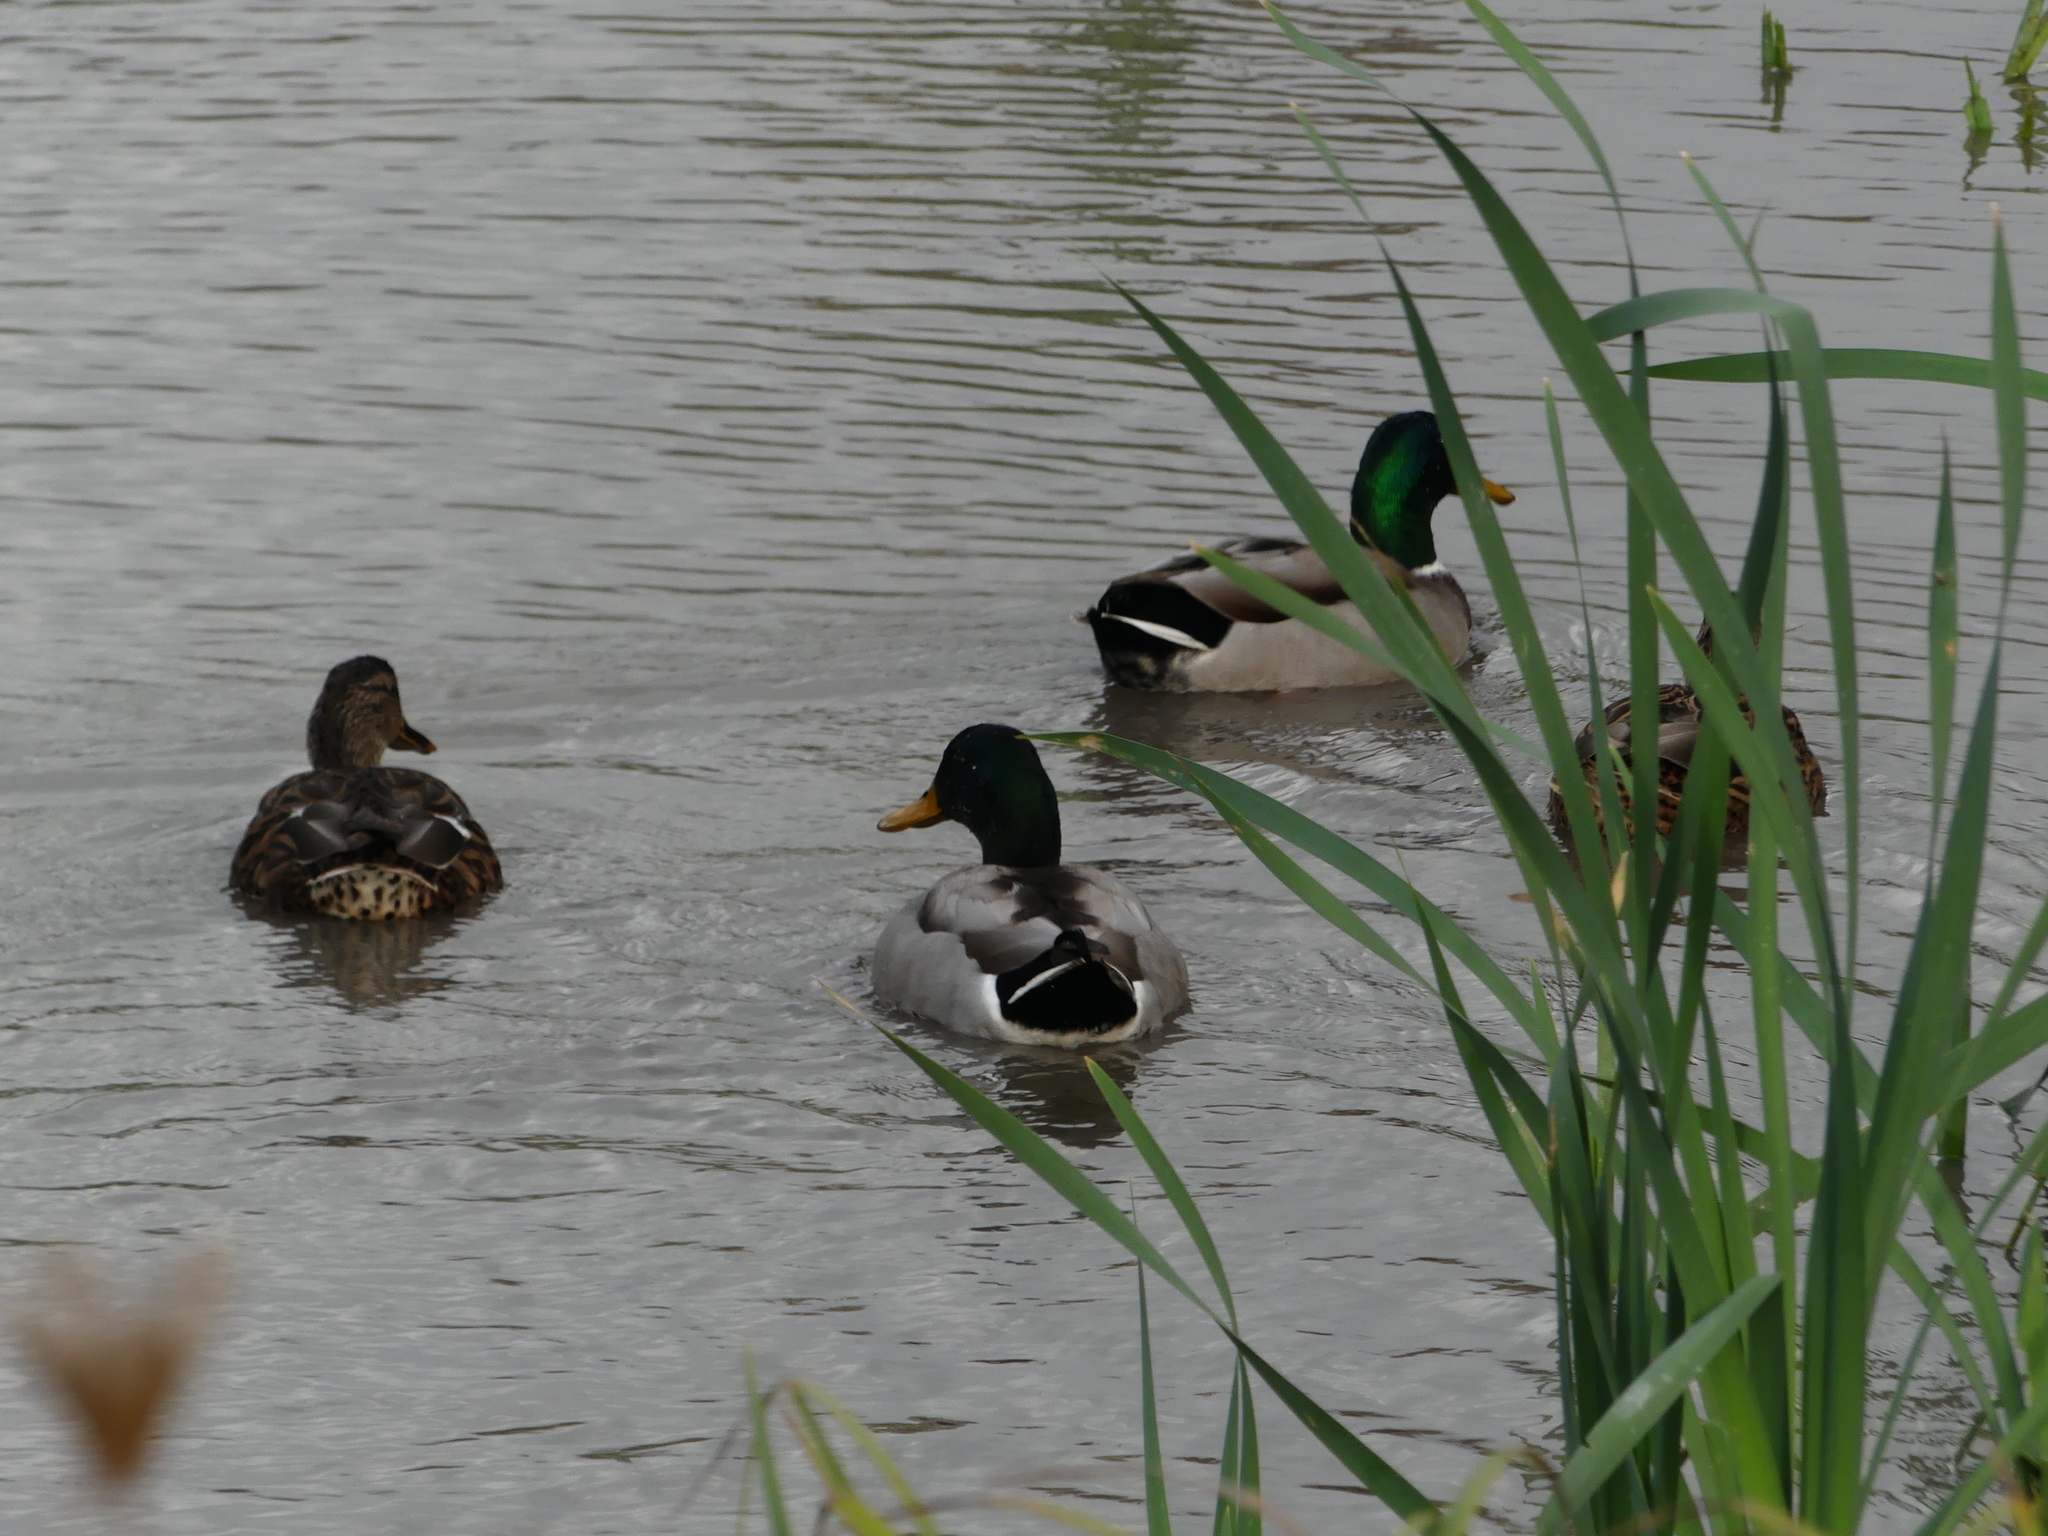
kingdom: Animalia
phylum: Chordata
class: Aves
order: Anseriformes
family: Anatidae
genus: Anas
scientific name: Anas platyrhynchos
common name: Mallard
